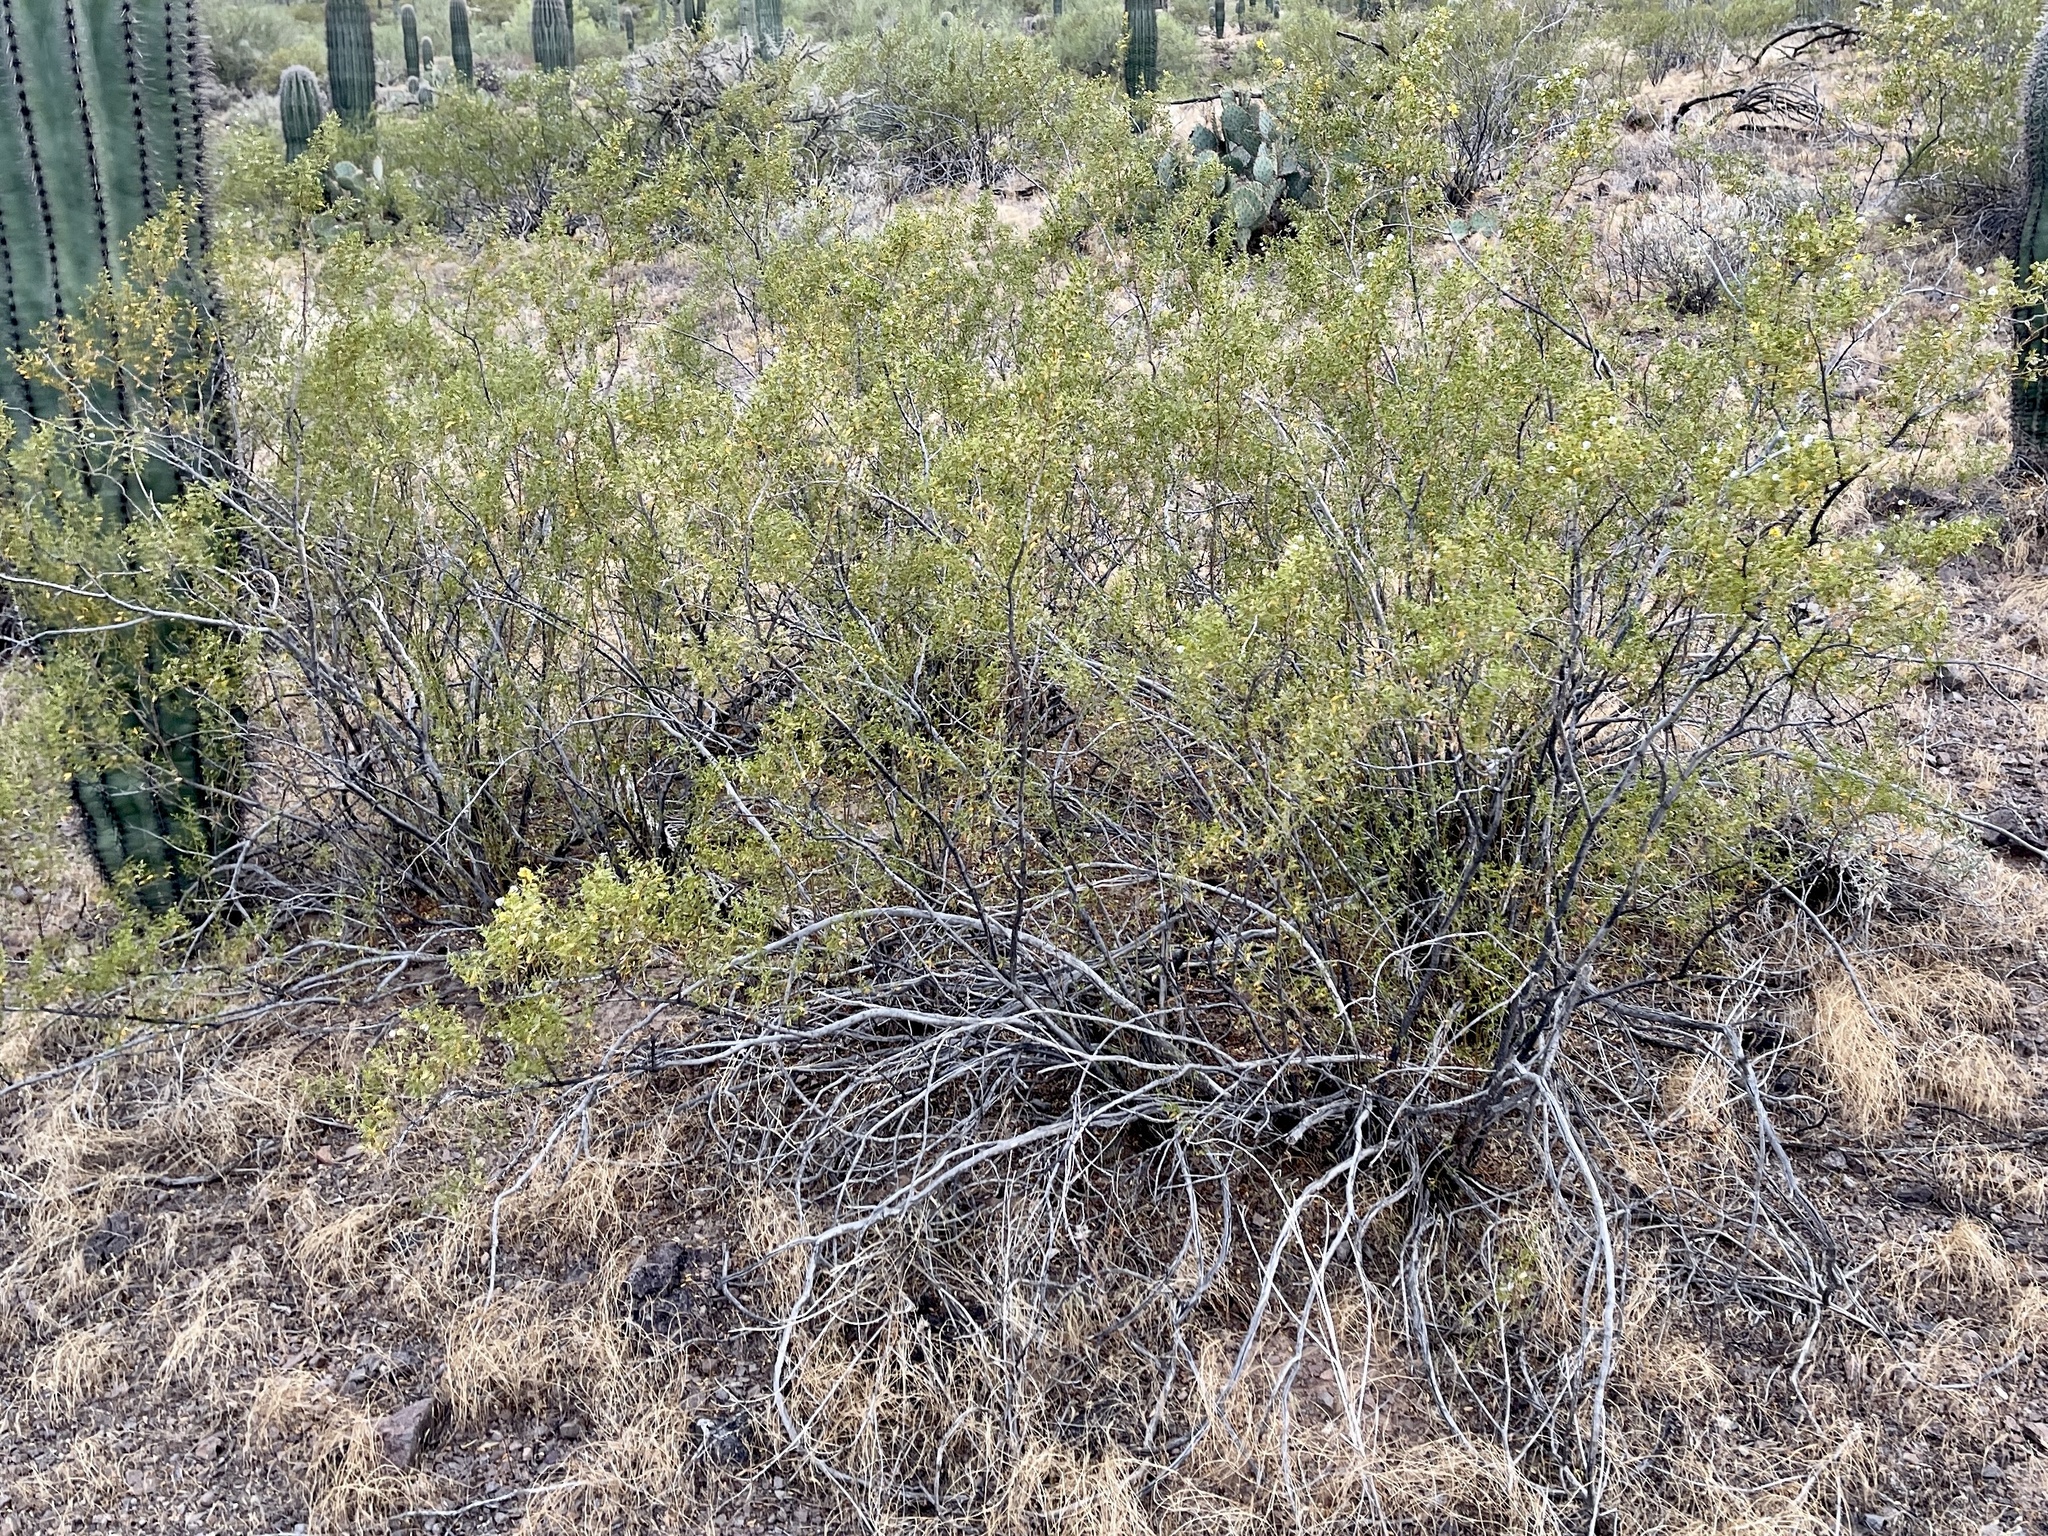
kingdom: Plantae
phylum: Tracheophyta
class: Magnoliopsida
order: Zygophyllales
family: Zygophyllaceae
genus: Larrea
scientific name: Larrea tridentata
